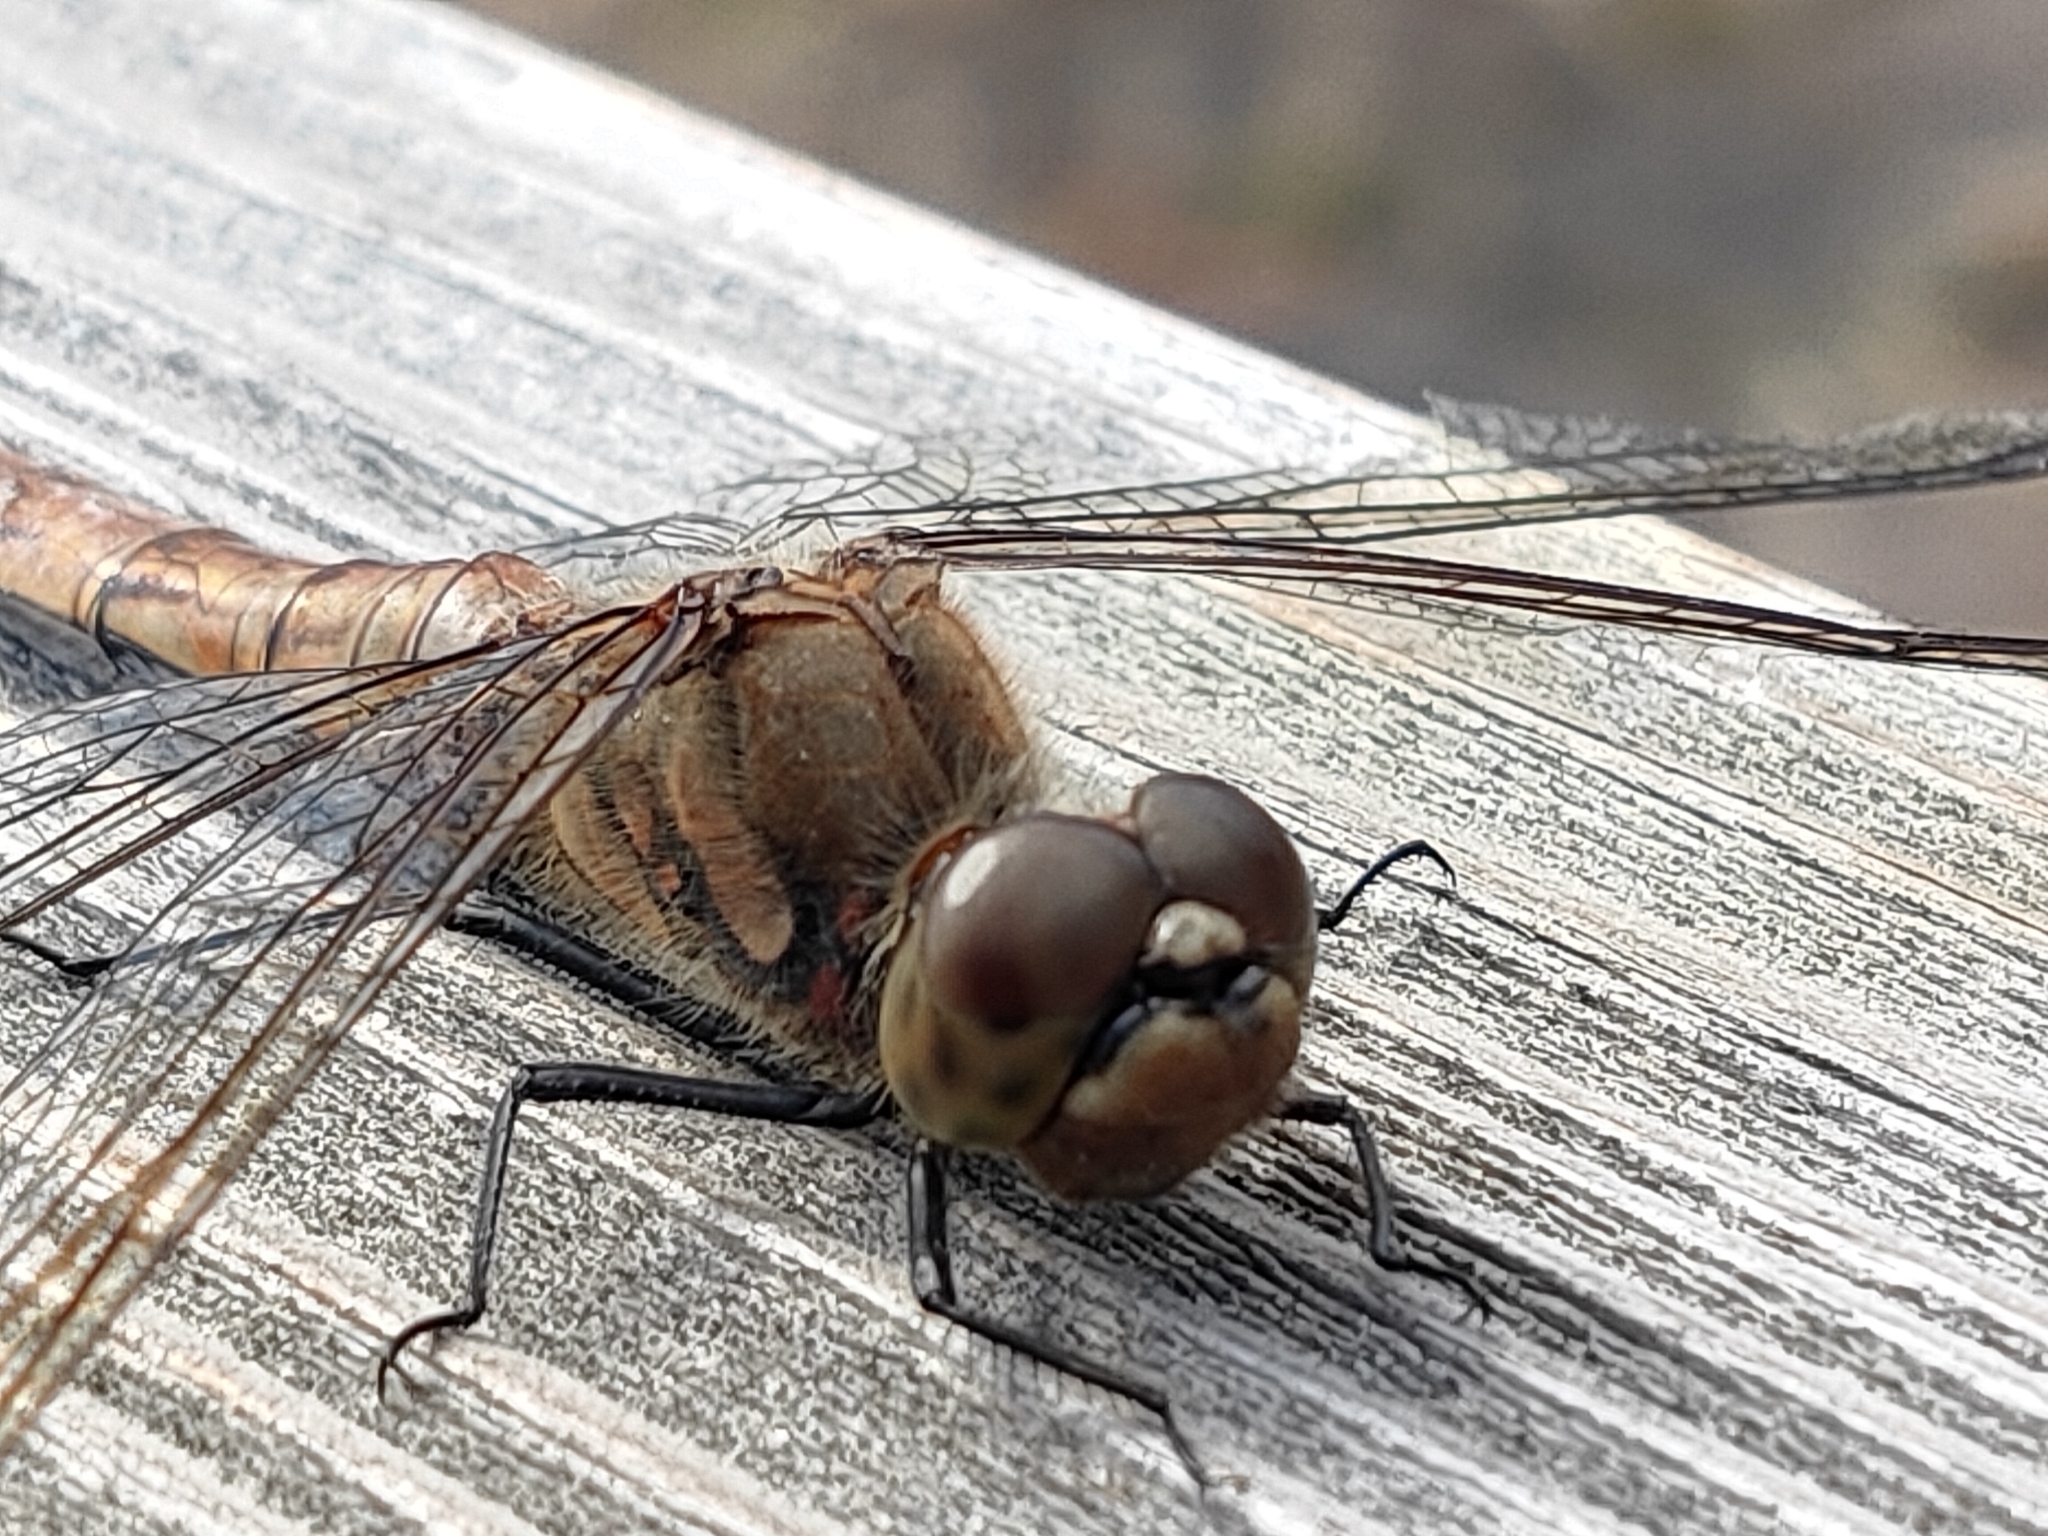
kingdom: Animalia
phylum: Arthropoda
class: Insecta
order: Odonata
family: Libellulidae
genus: Sympetrum
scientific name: Sympetrum frequens
